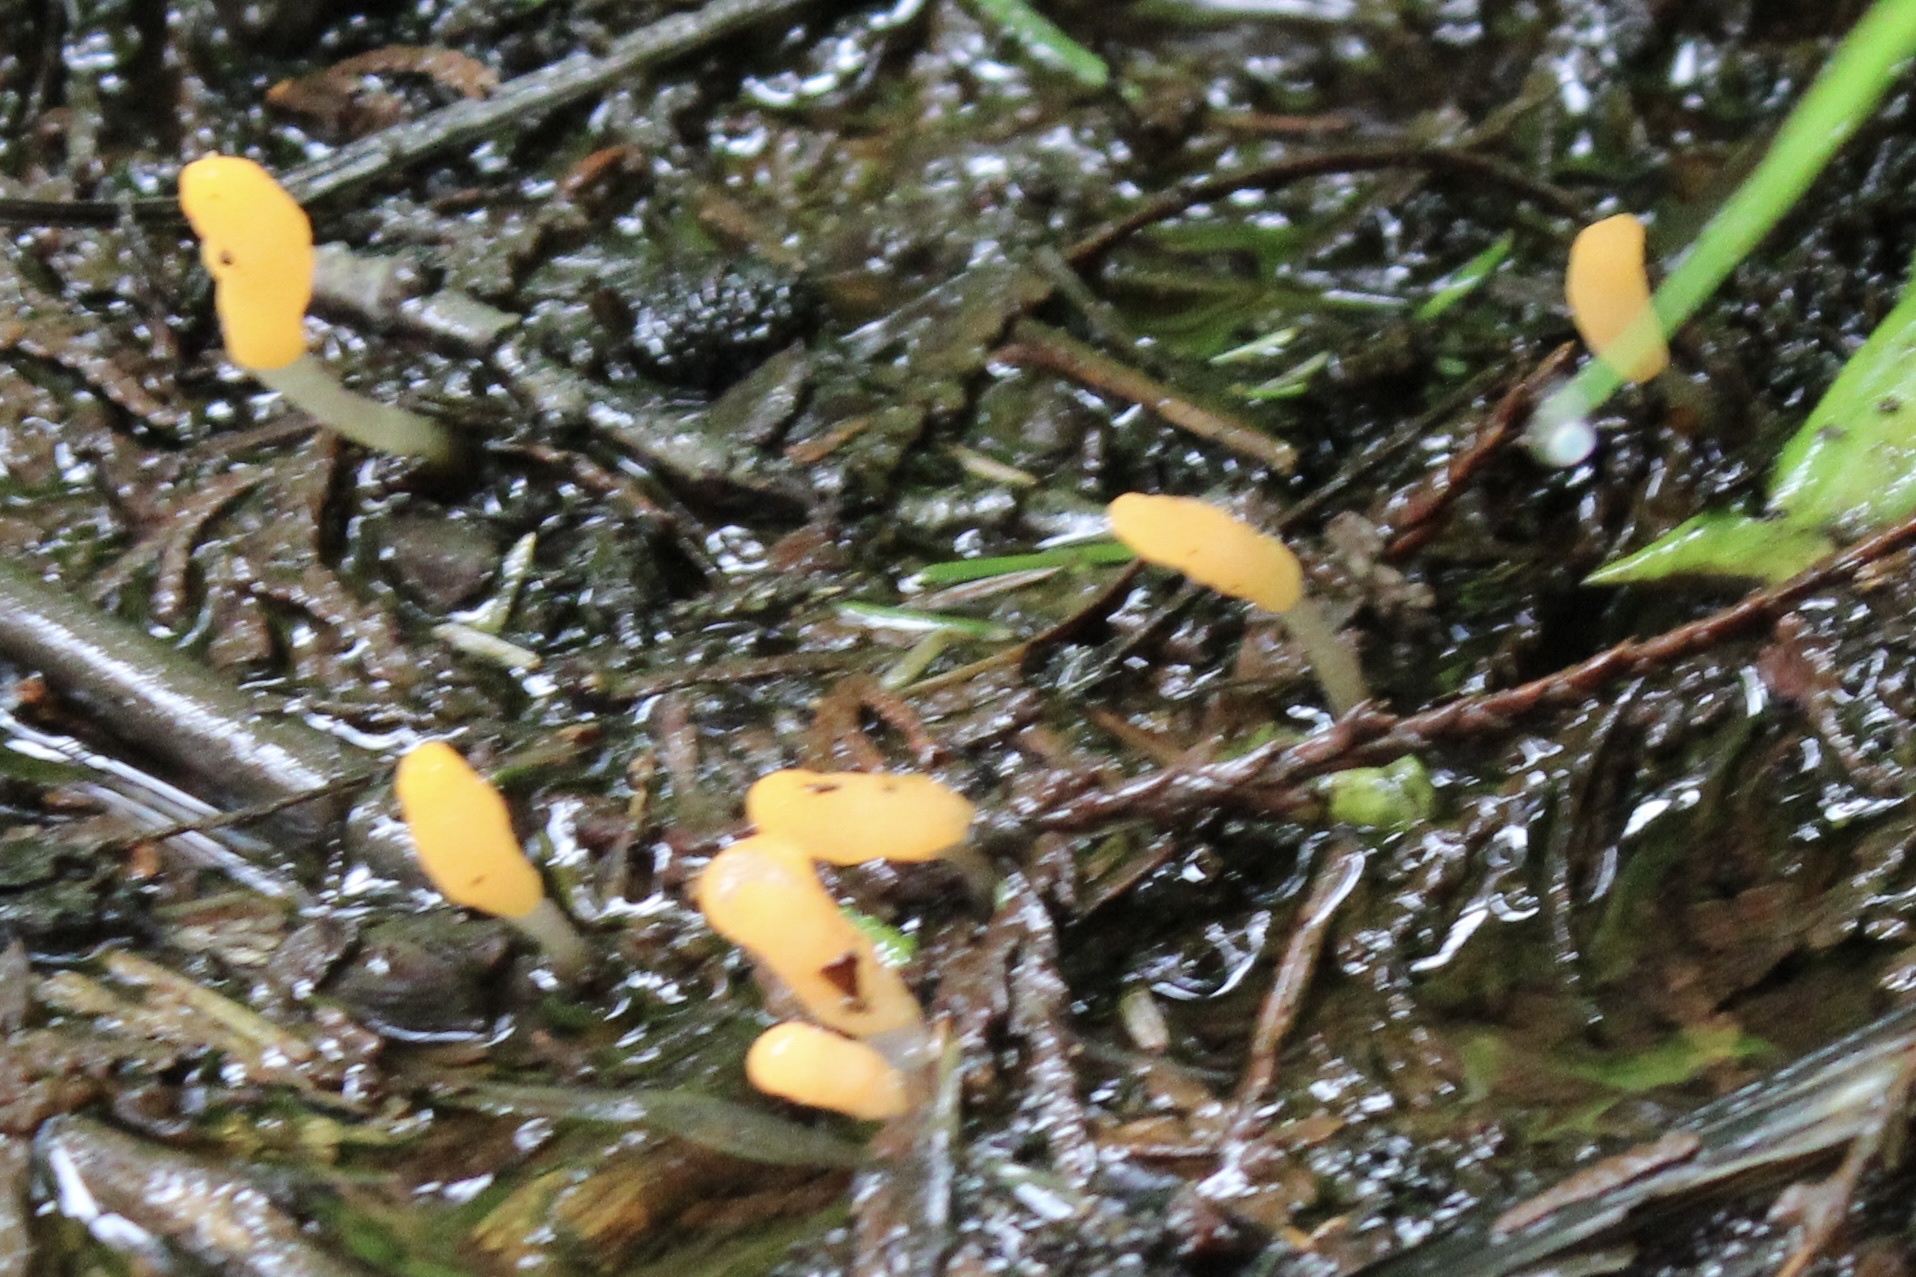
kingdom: Fungi
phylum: Ascomycota
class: Leotiomycetes
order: Helotiales
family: Sclerotiniaceae
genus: Mitrula
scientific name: Mitrula elegans
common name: Swamp beacon
